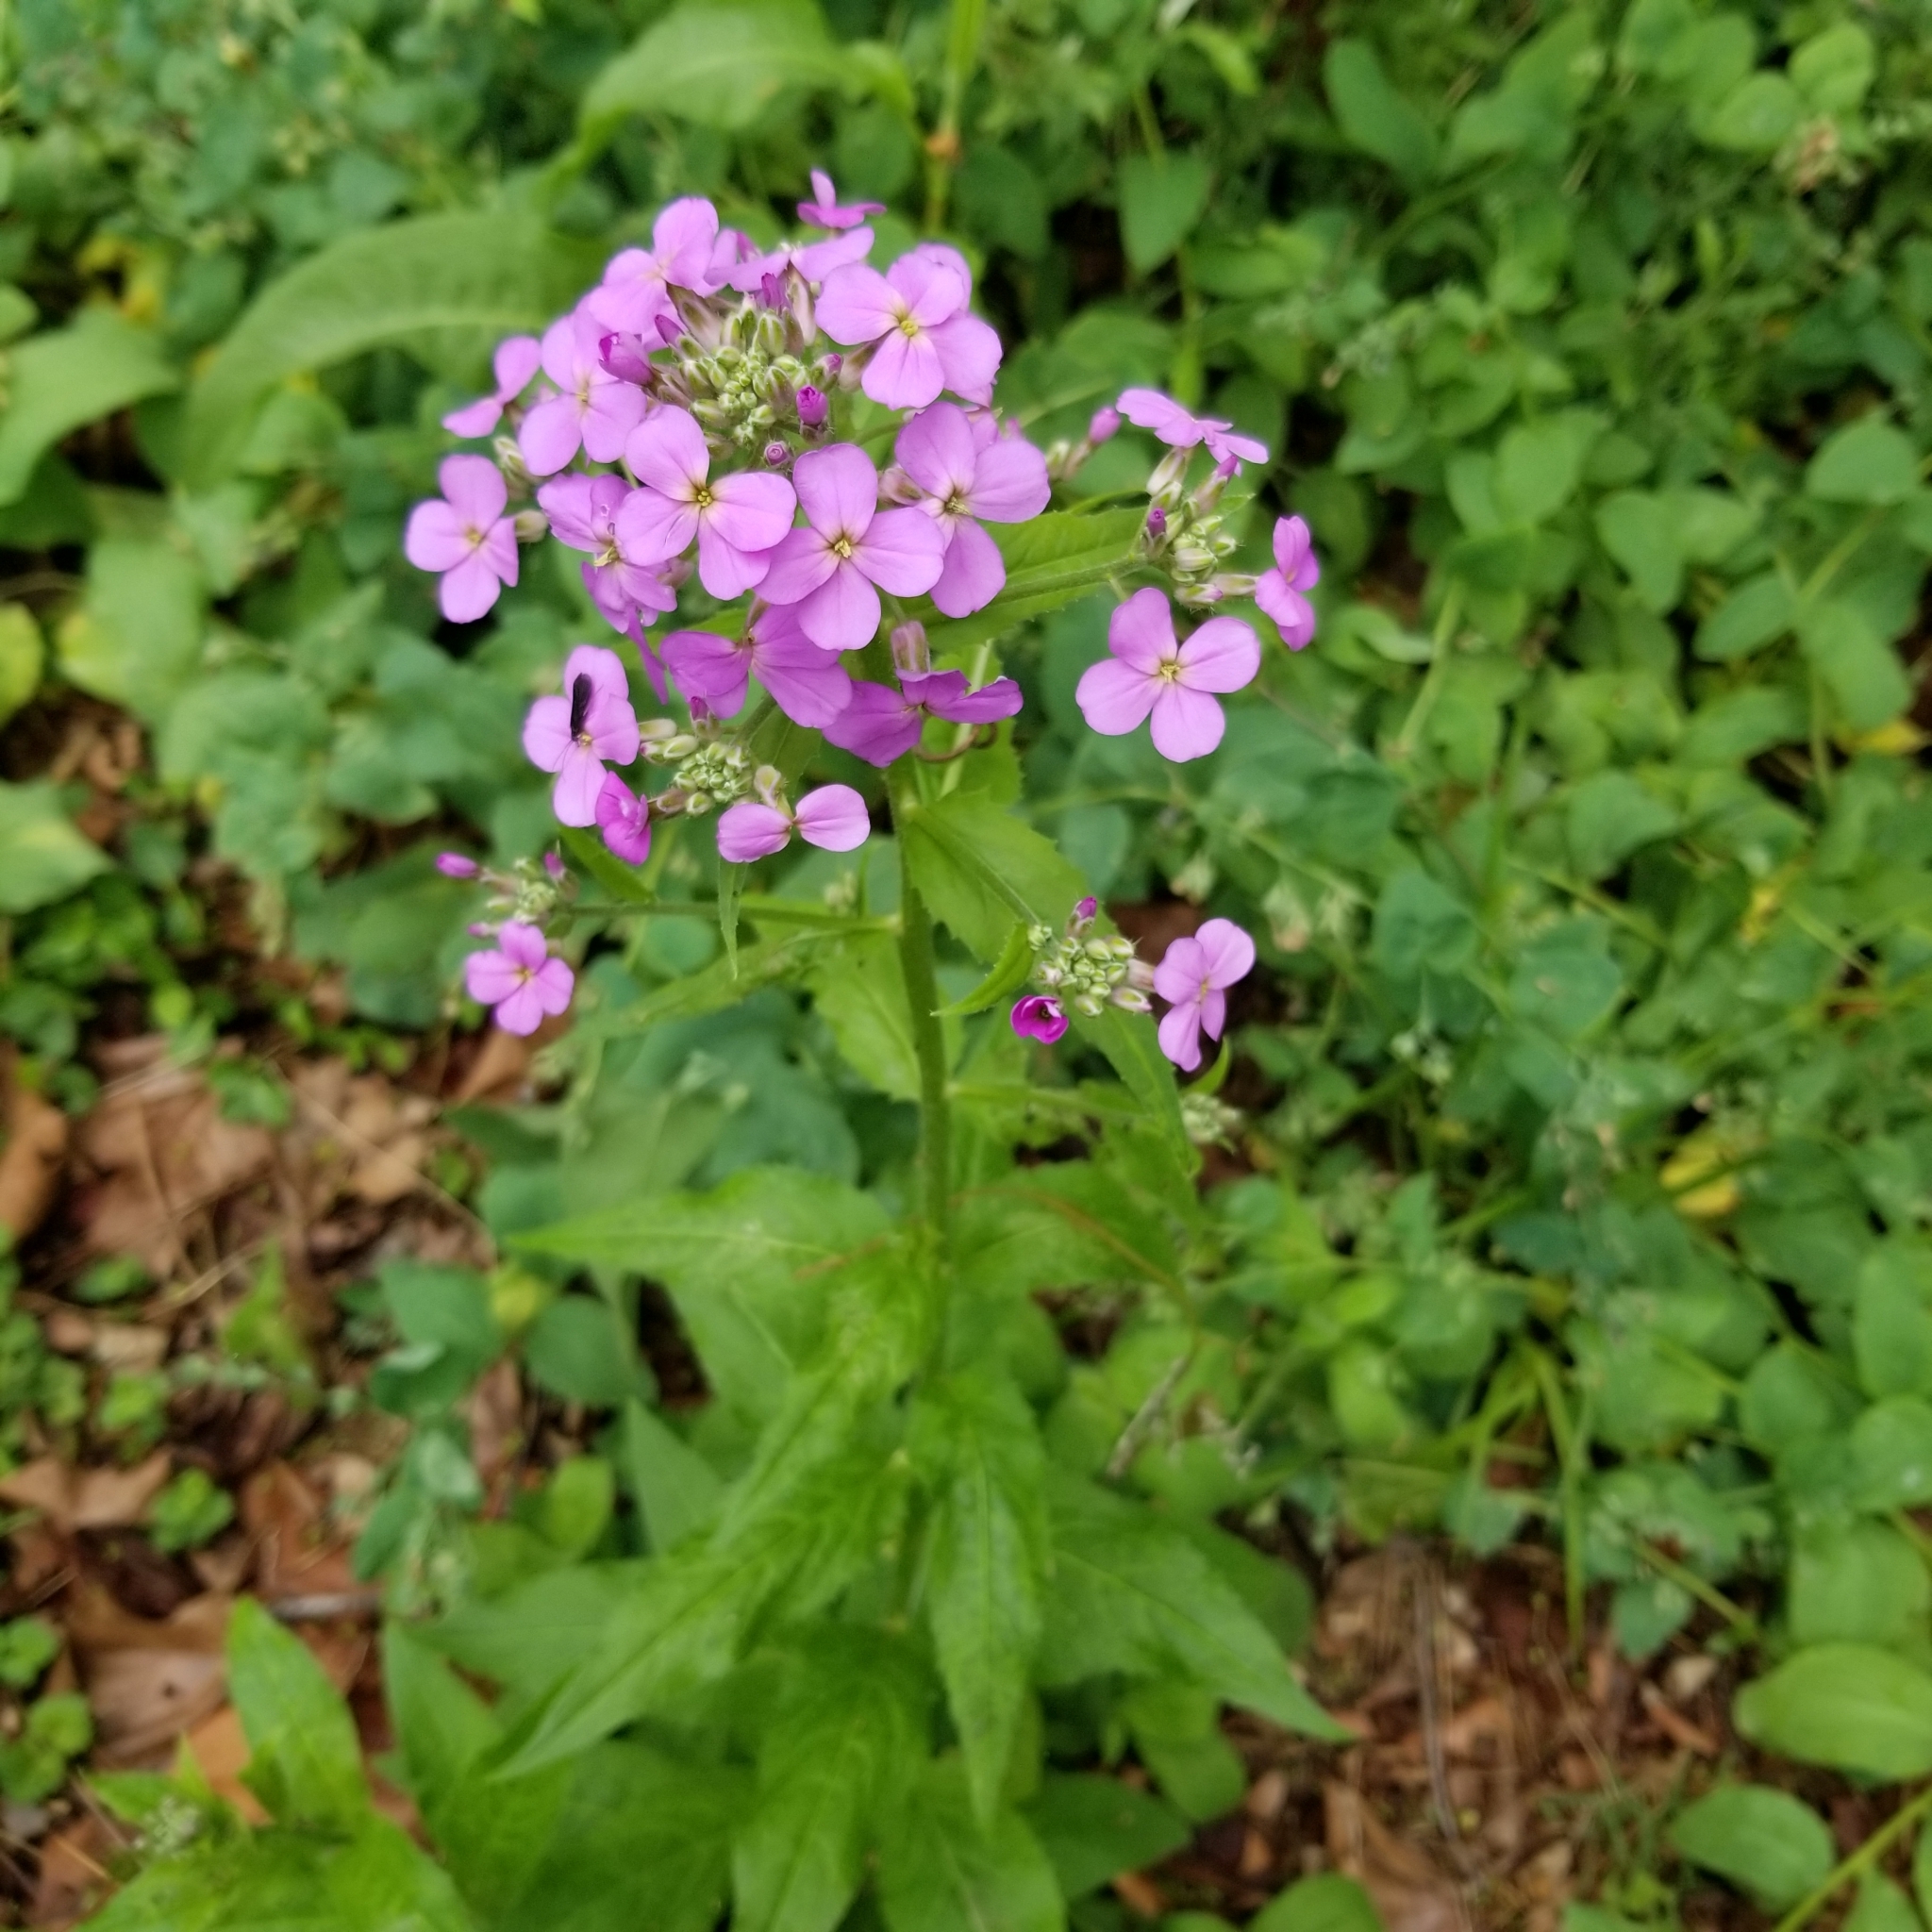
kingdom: Plantae
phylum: Tracheophyta
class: Magnoliopsida
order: Brassicales
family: Brassicaceae
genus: Hesperis
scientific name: Hesperis matronalis
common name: Dame's-violet
